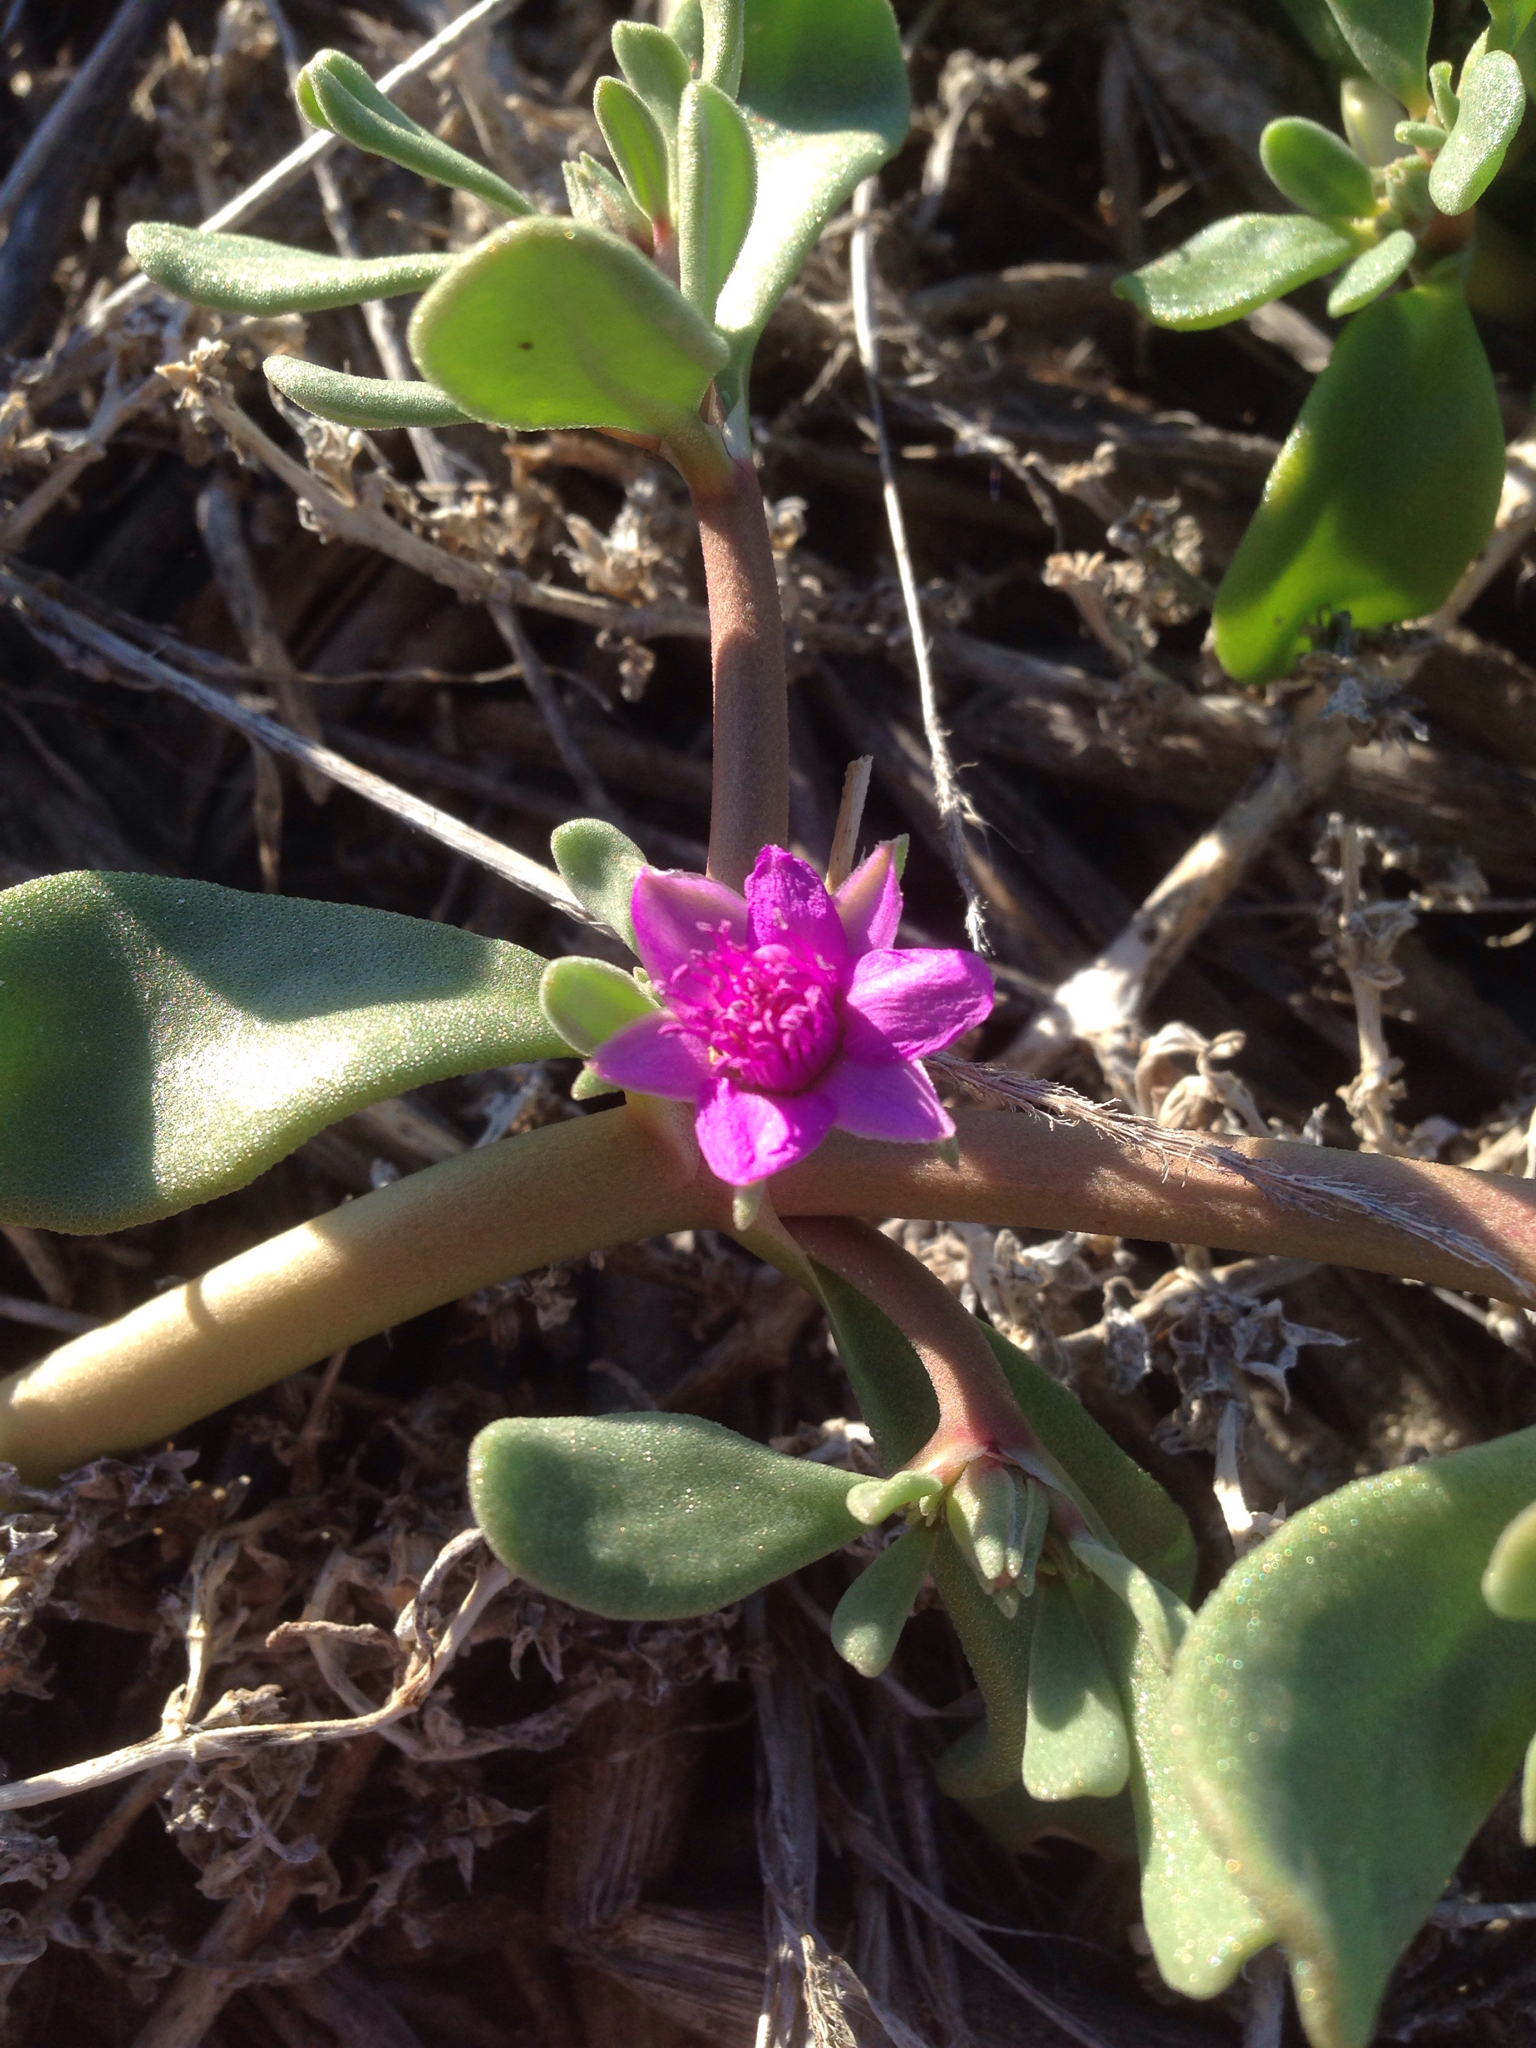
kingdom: Plantae
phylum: Tracheophyta
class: Magnoliopsida
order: Caryophyllales
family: Aizoaceae
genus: Sesuvium
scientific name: Sesuvium revolutifolium
